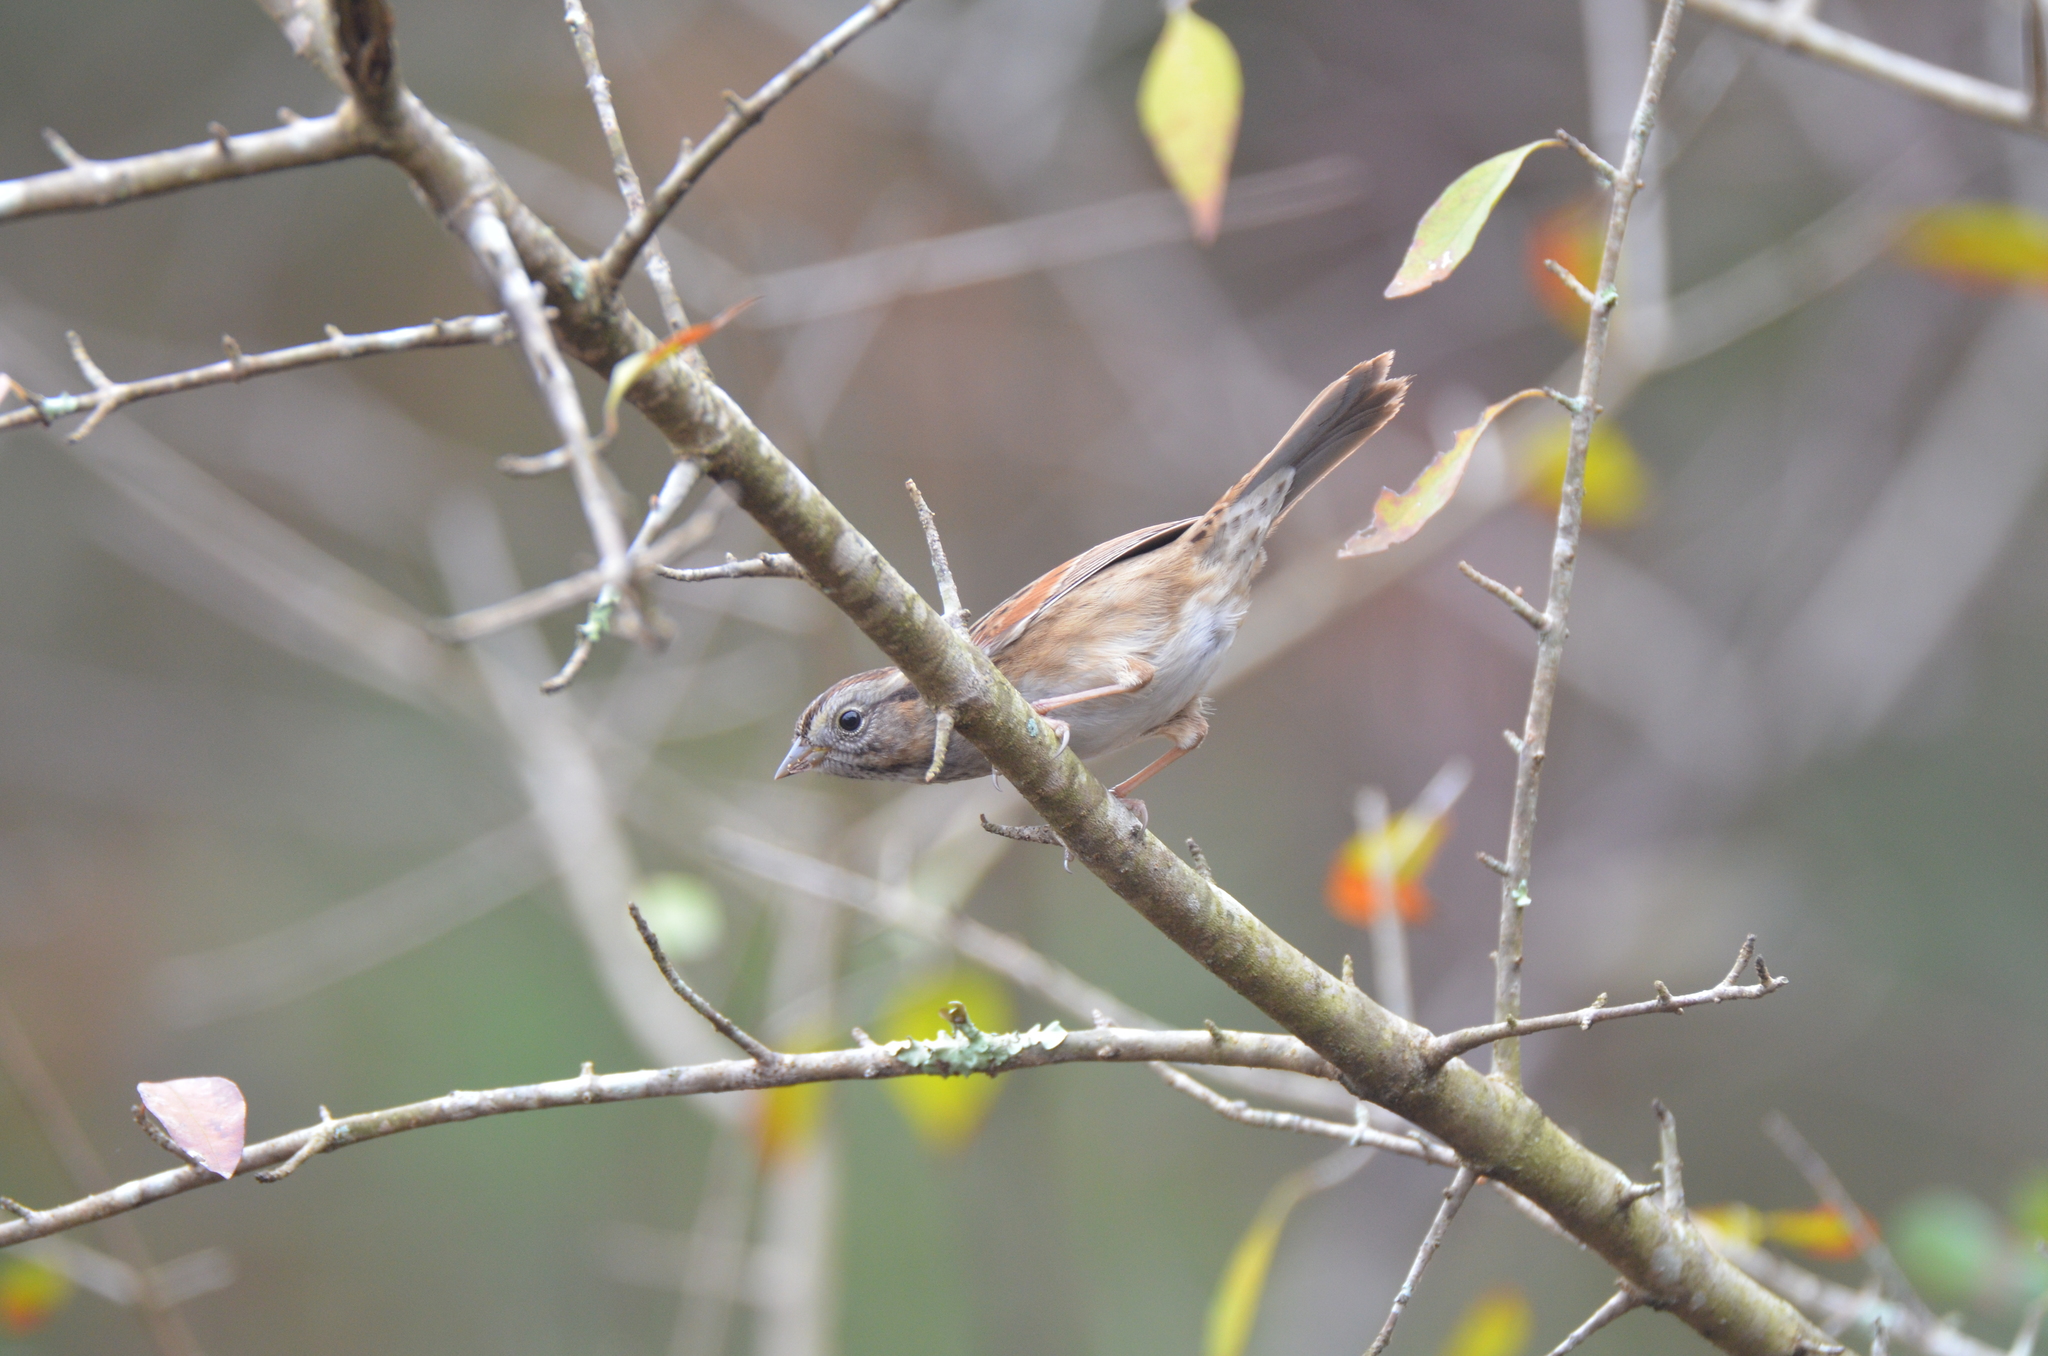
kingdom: Animalia
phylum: Chordata
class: Aves
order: Passeriformes
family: Passerellidae
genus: Melospiza
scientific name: Melospiza georgiana
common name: Swamp sparrow
